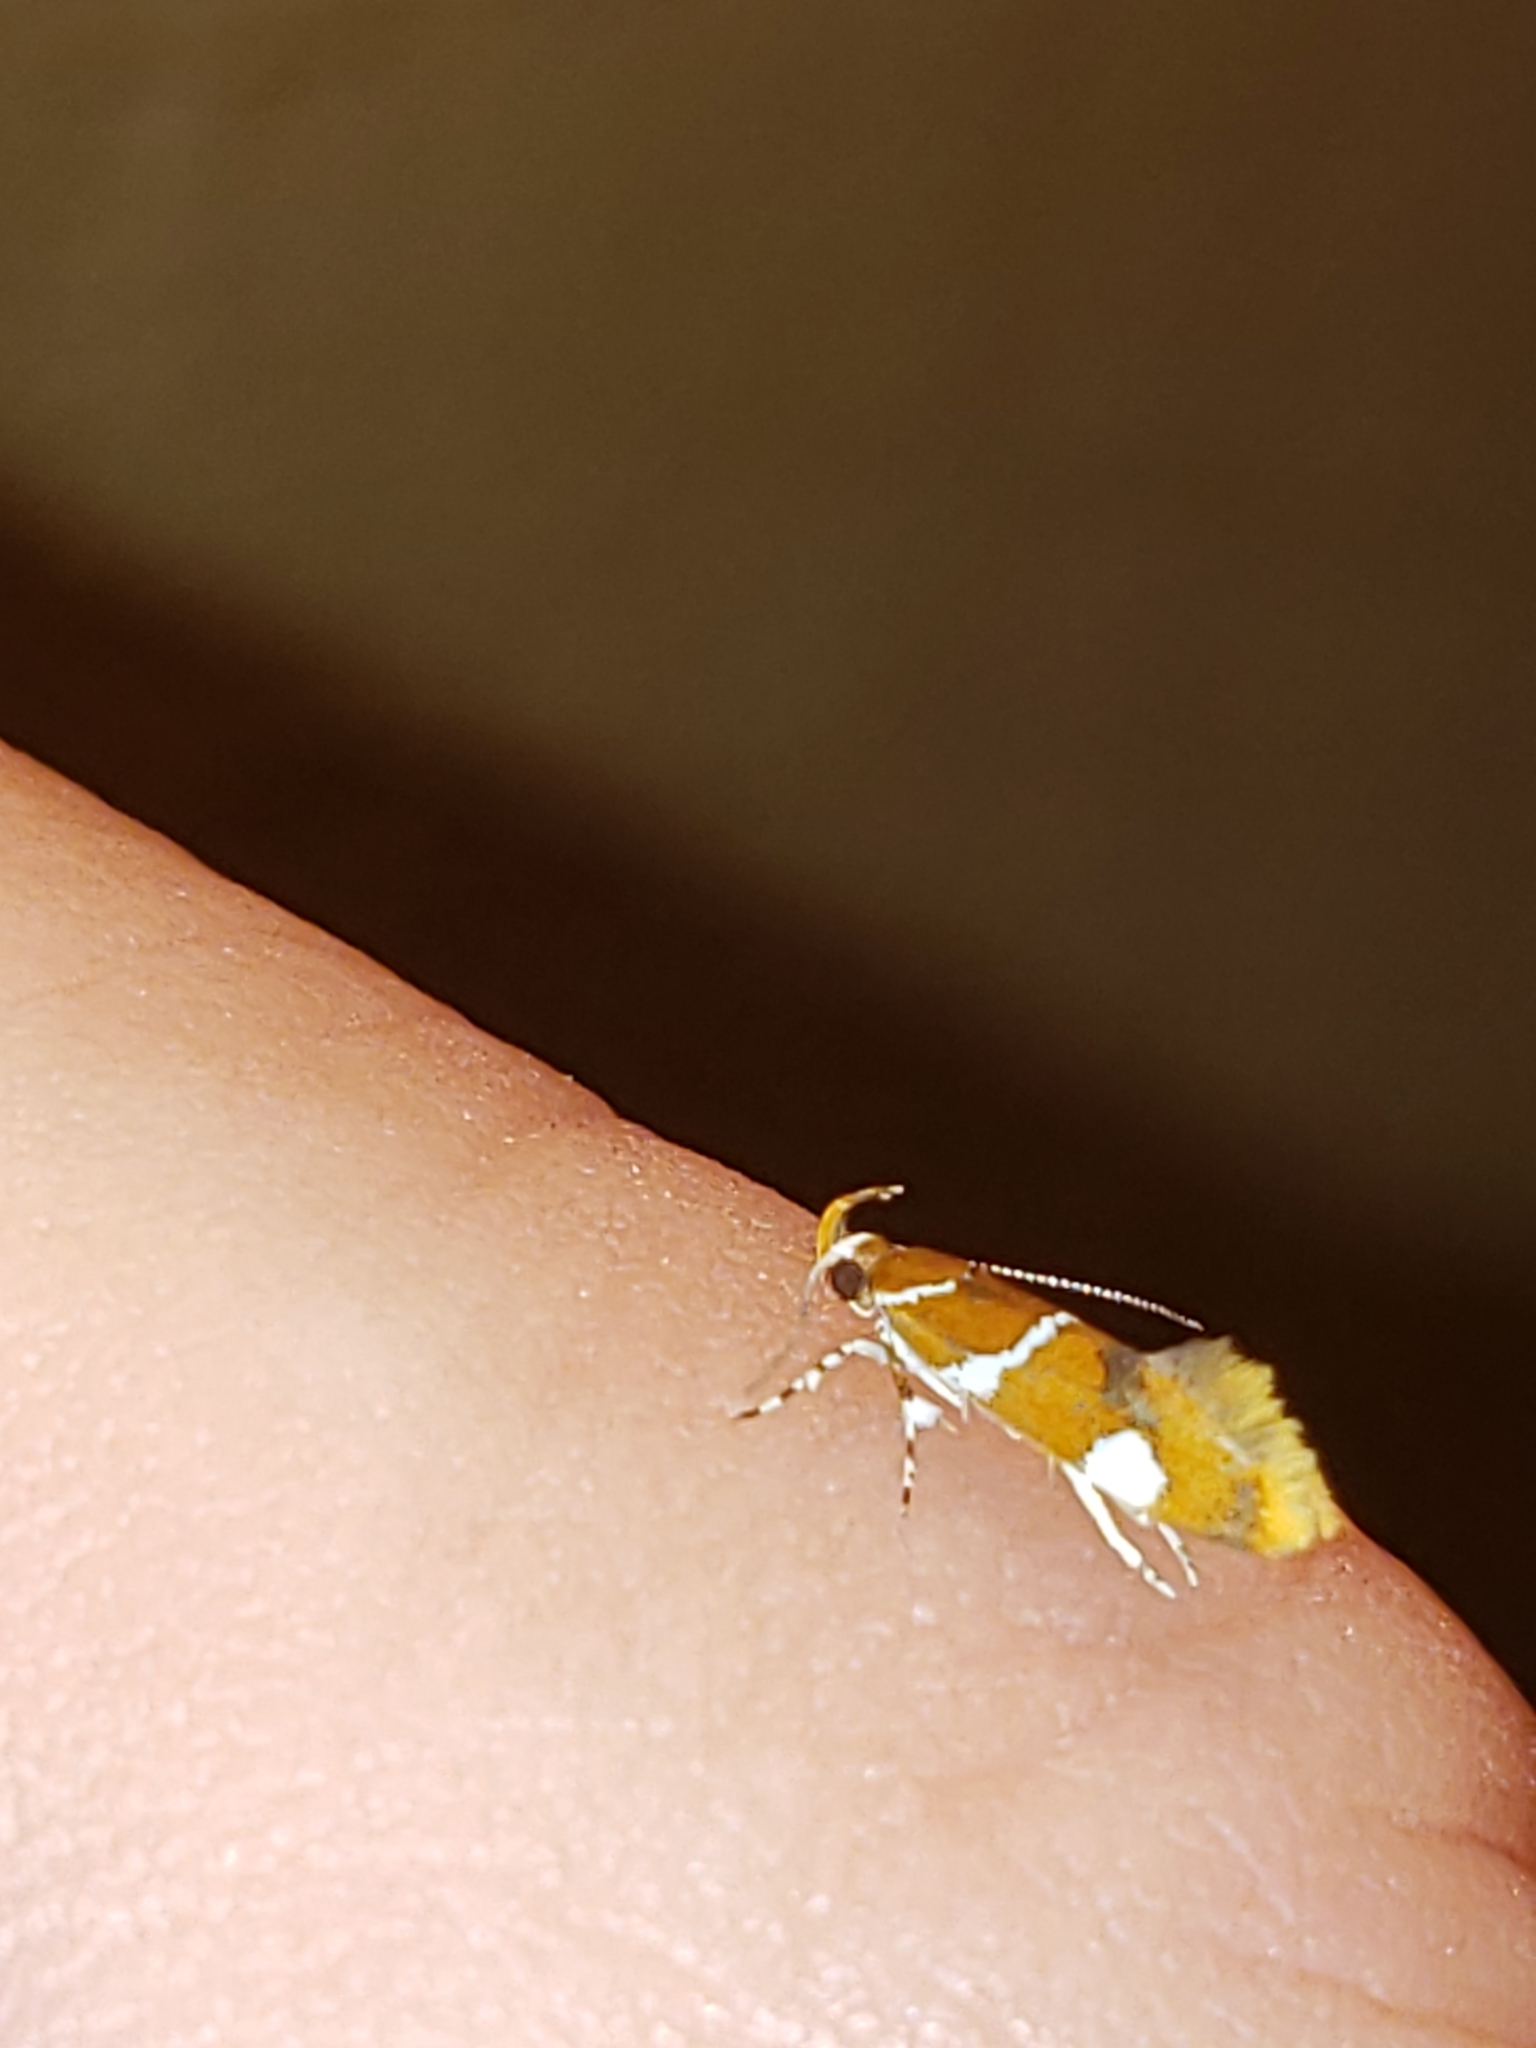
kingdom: Animalia
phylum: Arthropoda
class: Insecta
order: Lepidoptera
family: Oecophoridae
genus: Promalactis
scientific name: Promalactis suzukiella
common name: Moth
